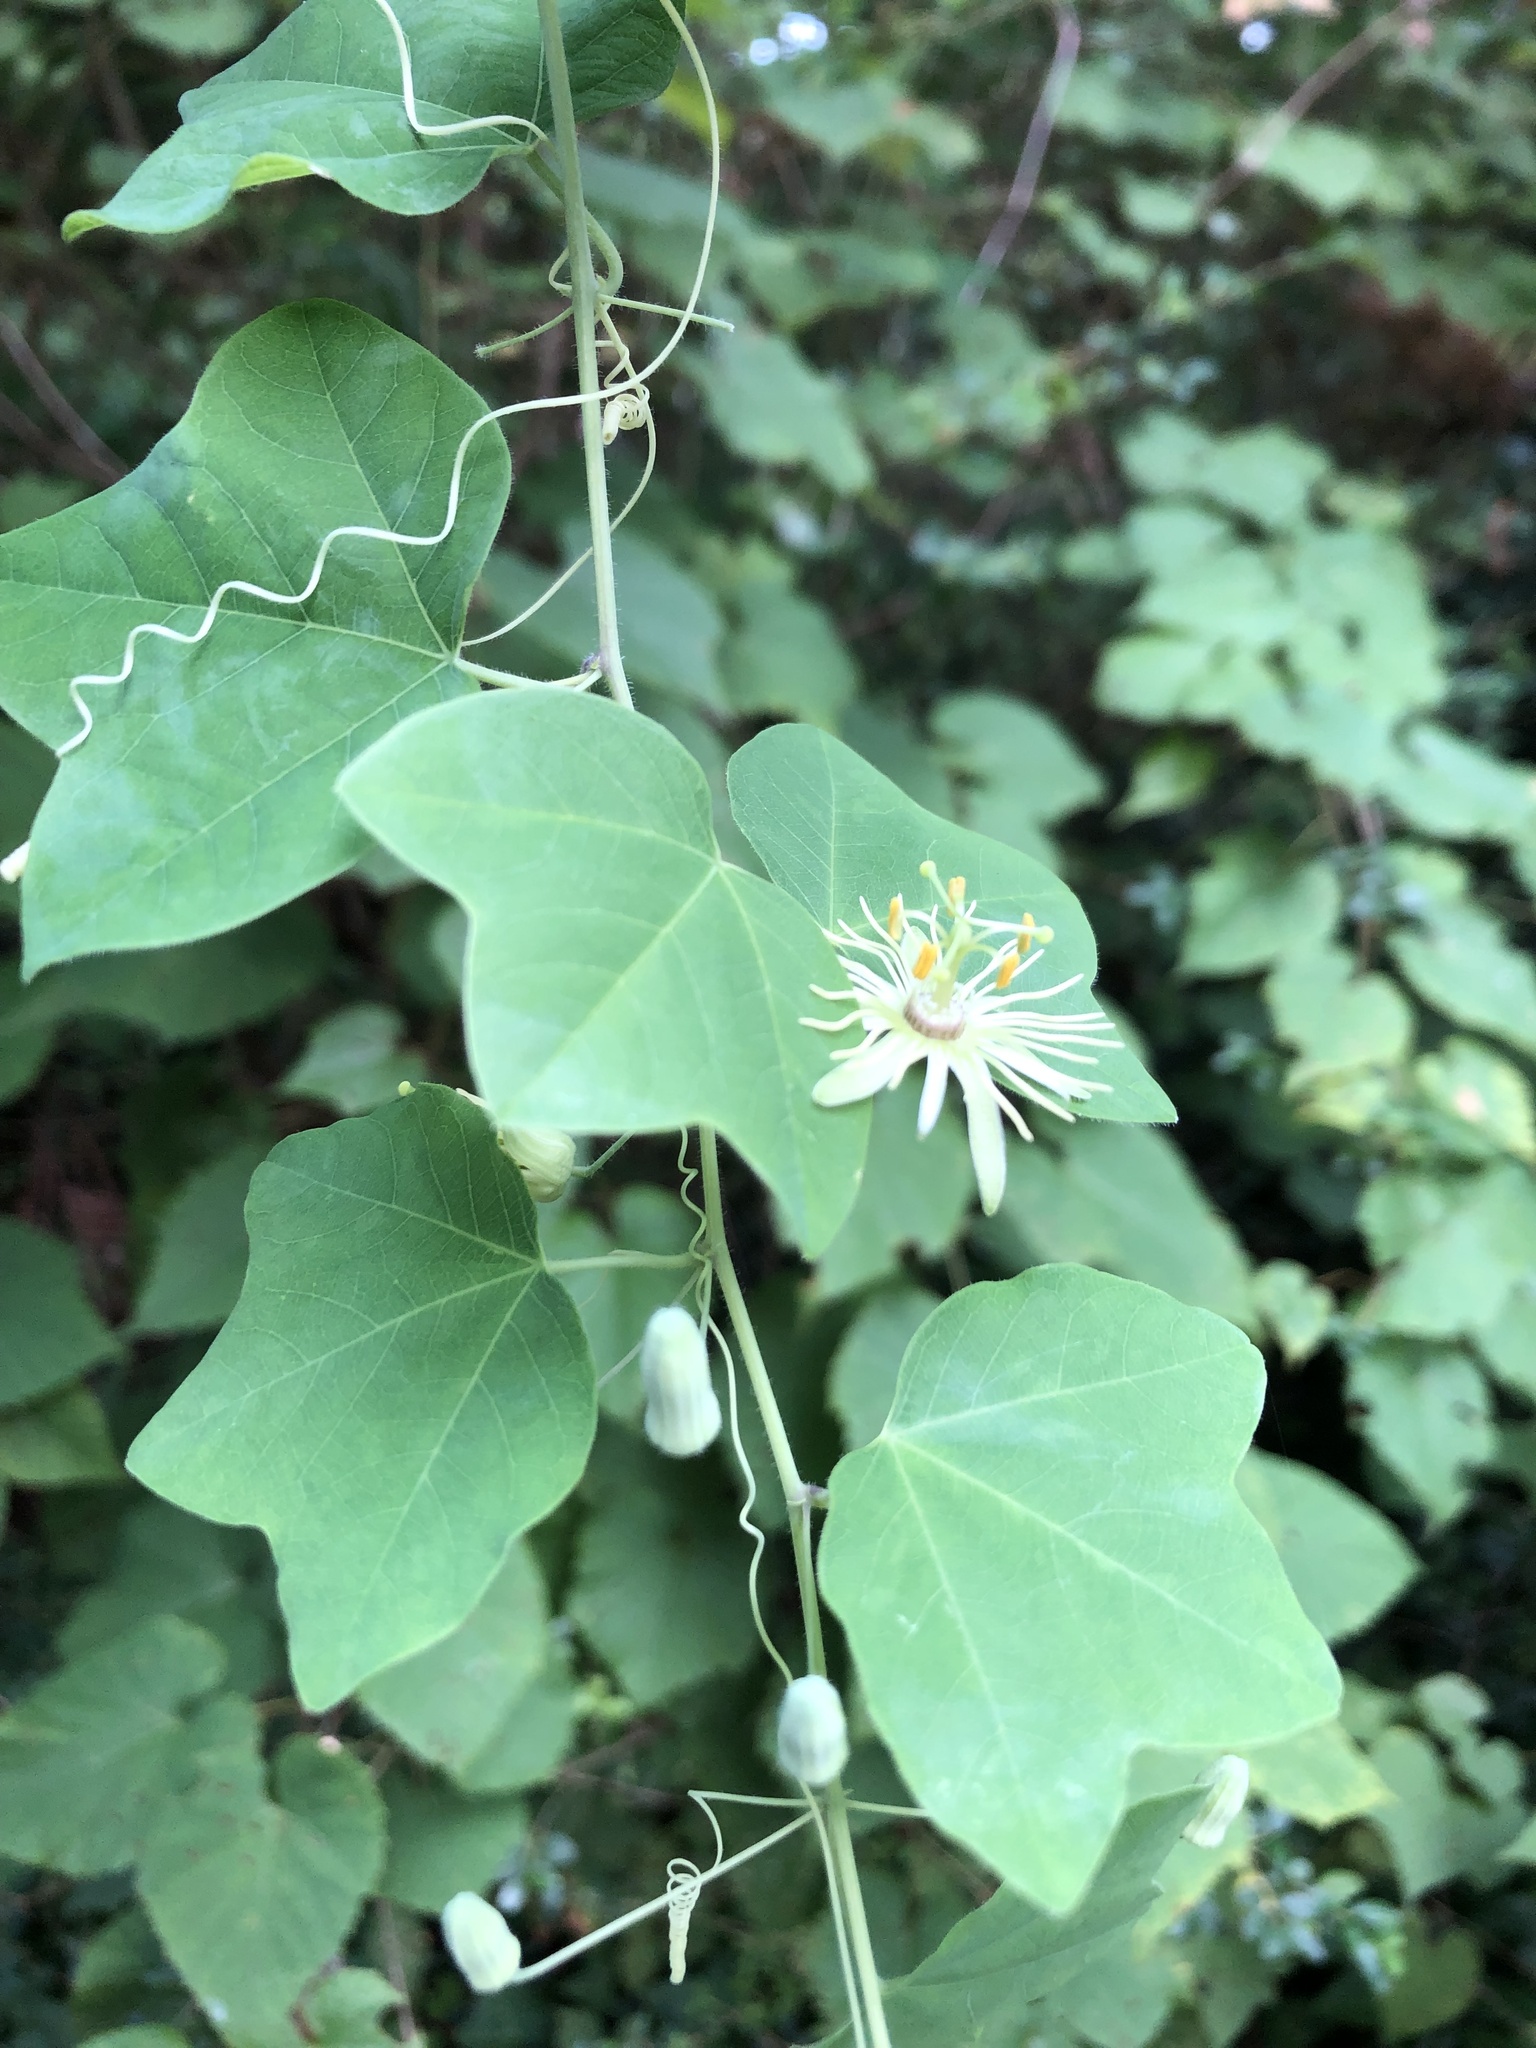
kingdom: Plantae
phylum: Tracheophyta
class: Magnoliopsida
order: Malpighiales
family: Passifloraceae
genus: Passiflora
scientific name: Passiflora lutea
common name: Yellow passionflower
